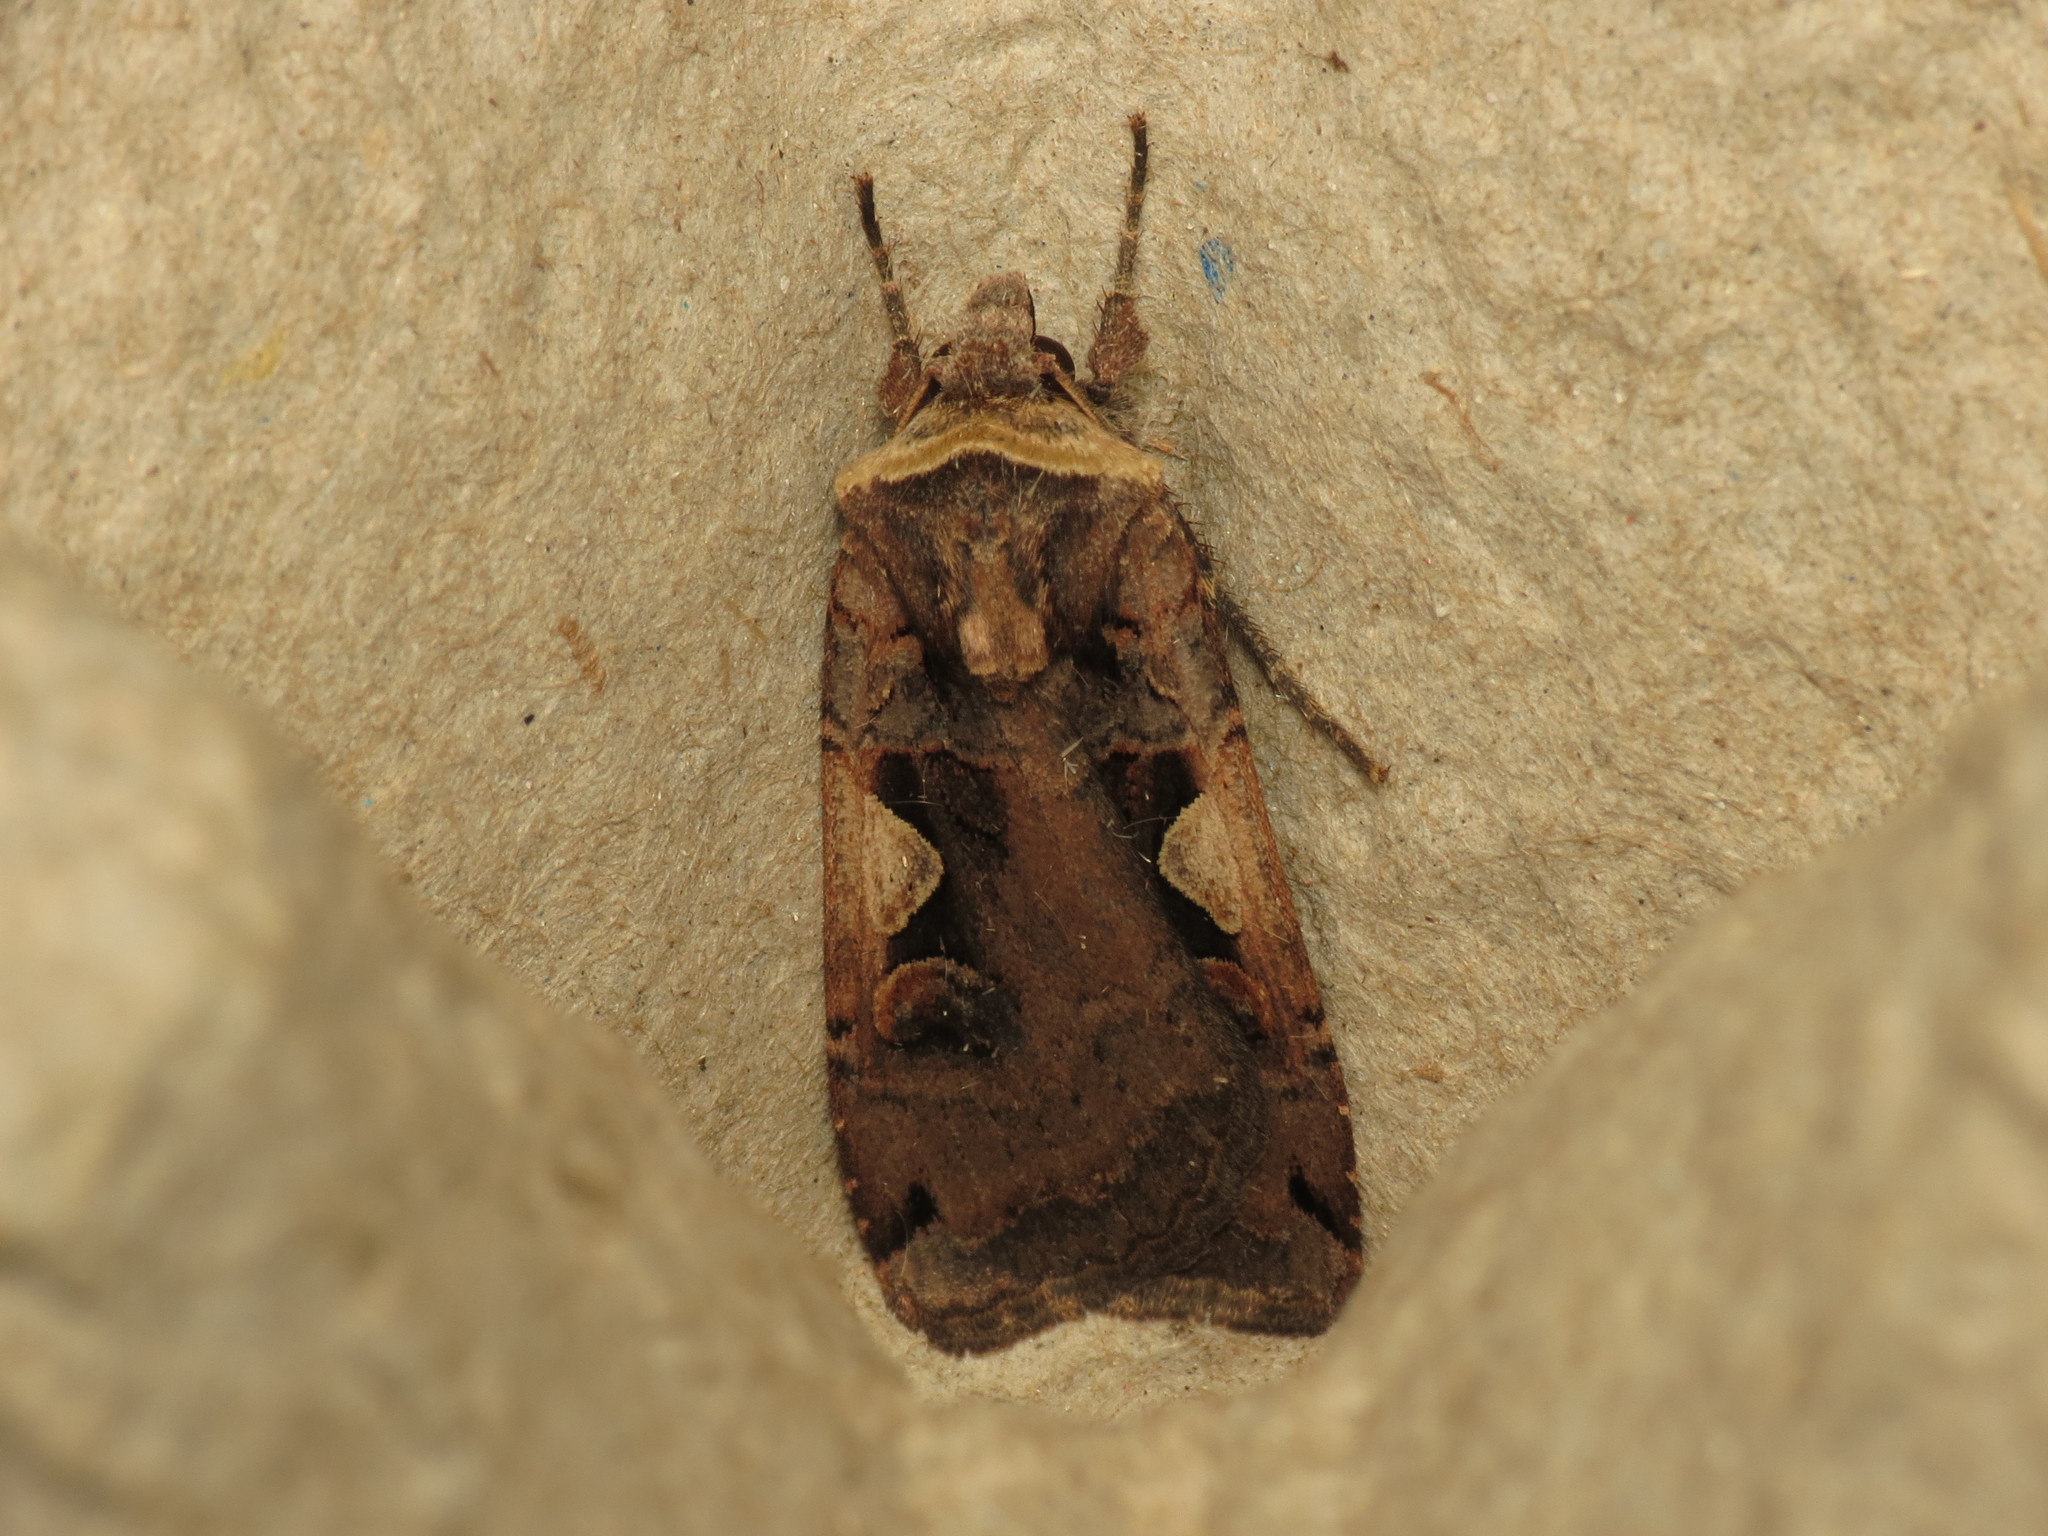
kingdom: Animalia
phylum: Arthropoda
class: Insecta
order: Lepidoptera
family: Noctuidae
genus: Xestia
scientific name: Xestia c-nigrum
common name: Setaceous hebrew character
